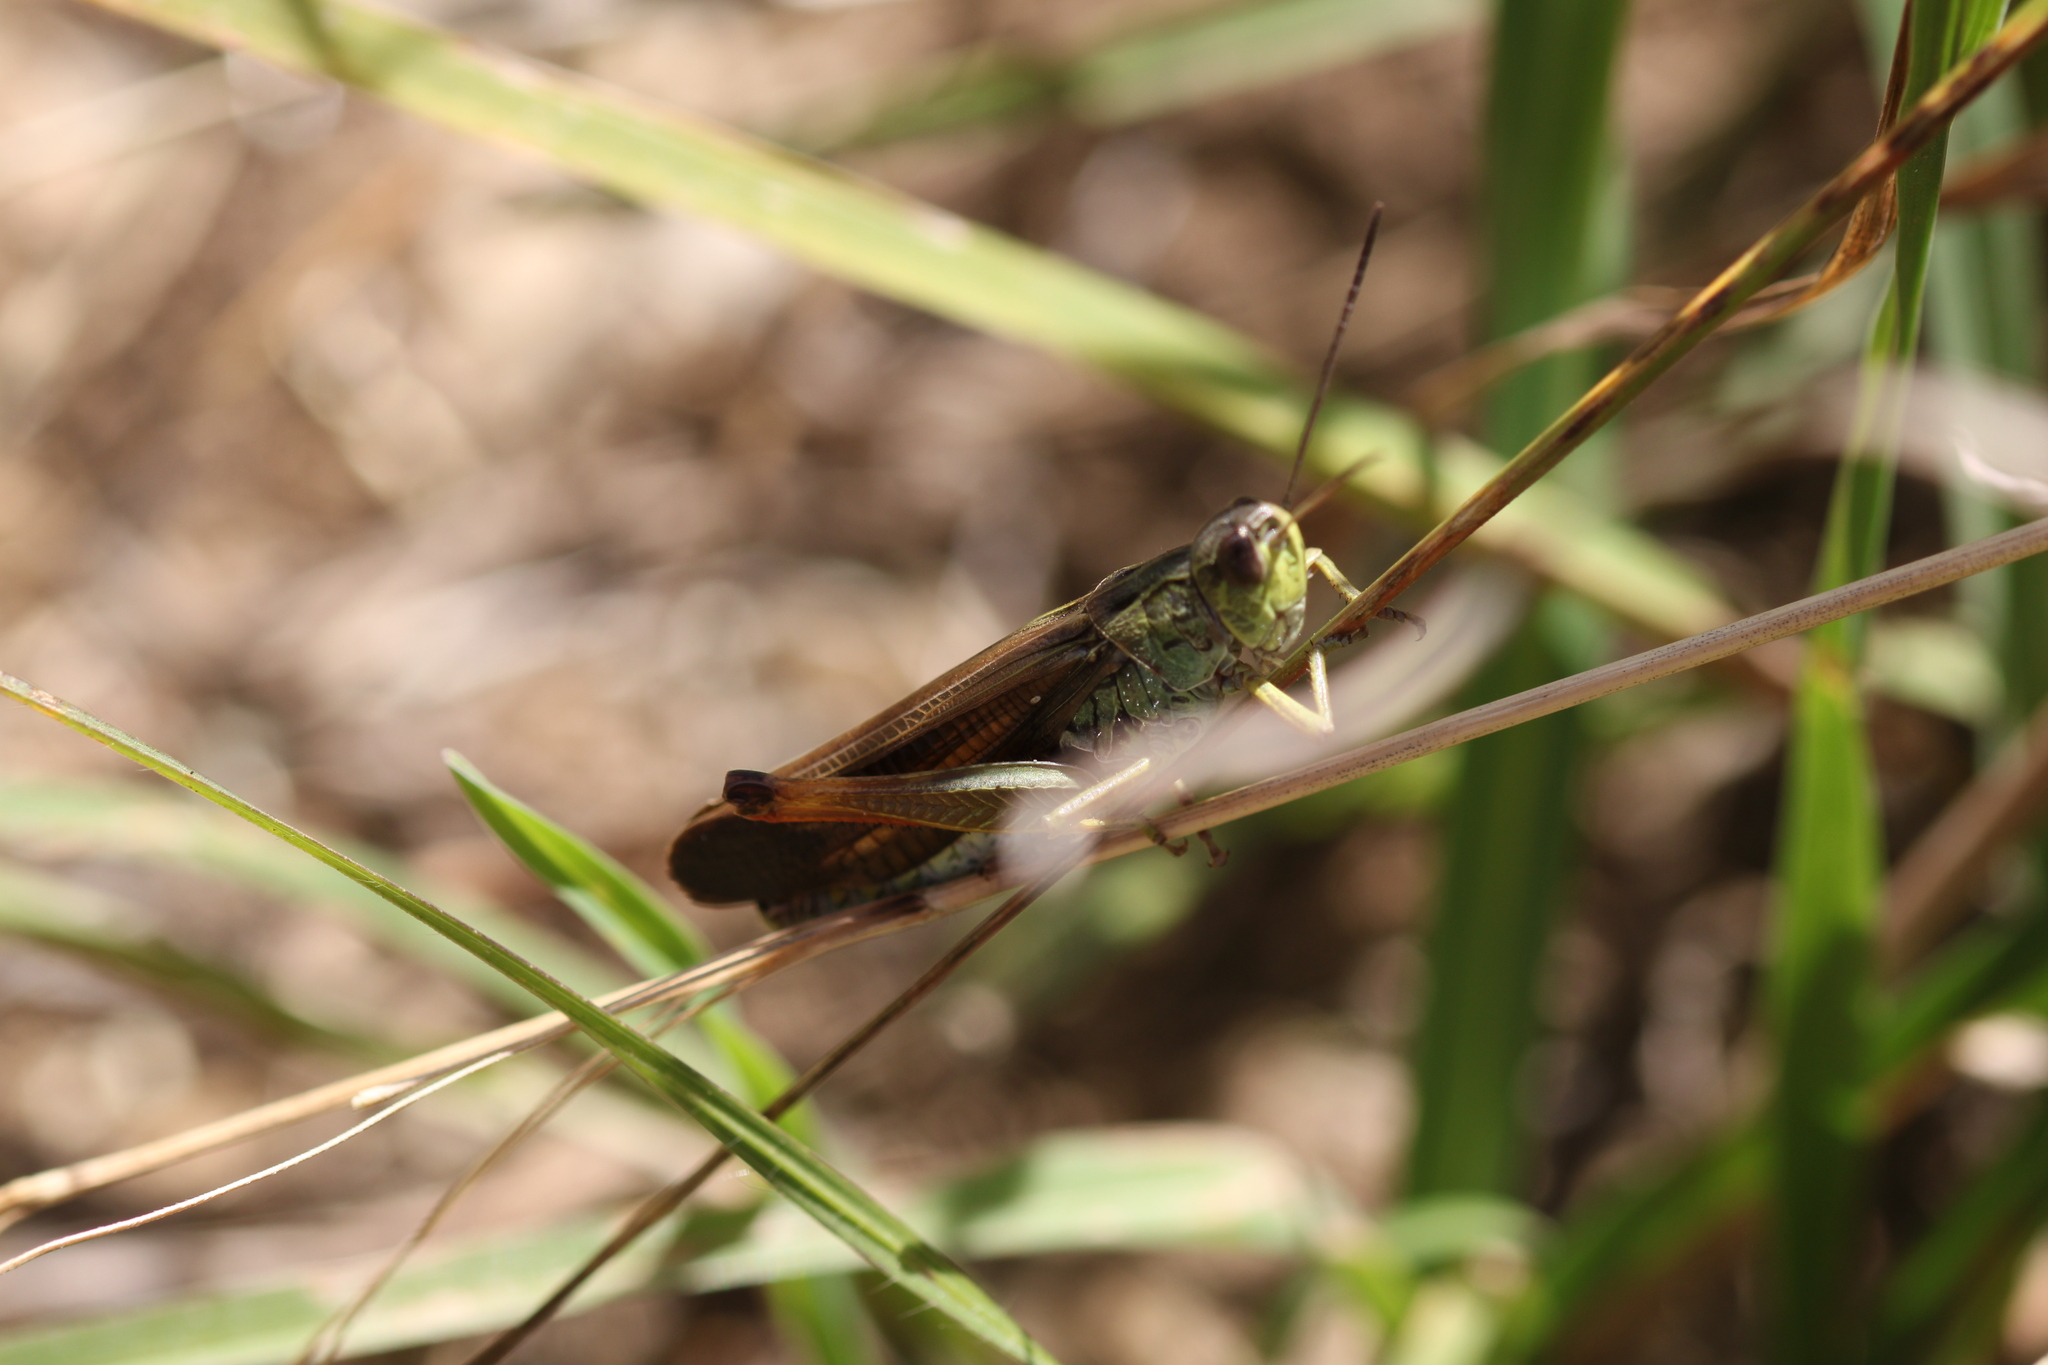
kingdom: Animalia
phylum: Arthropoda
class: Insecta
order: Orthoptera
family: Acrididae
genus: Stauroderus
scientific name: Stauroderus scalaris
